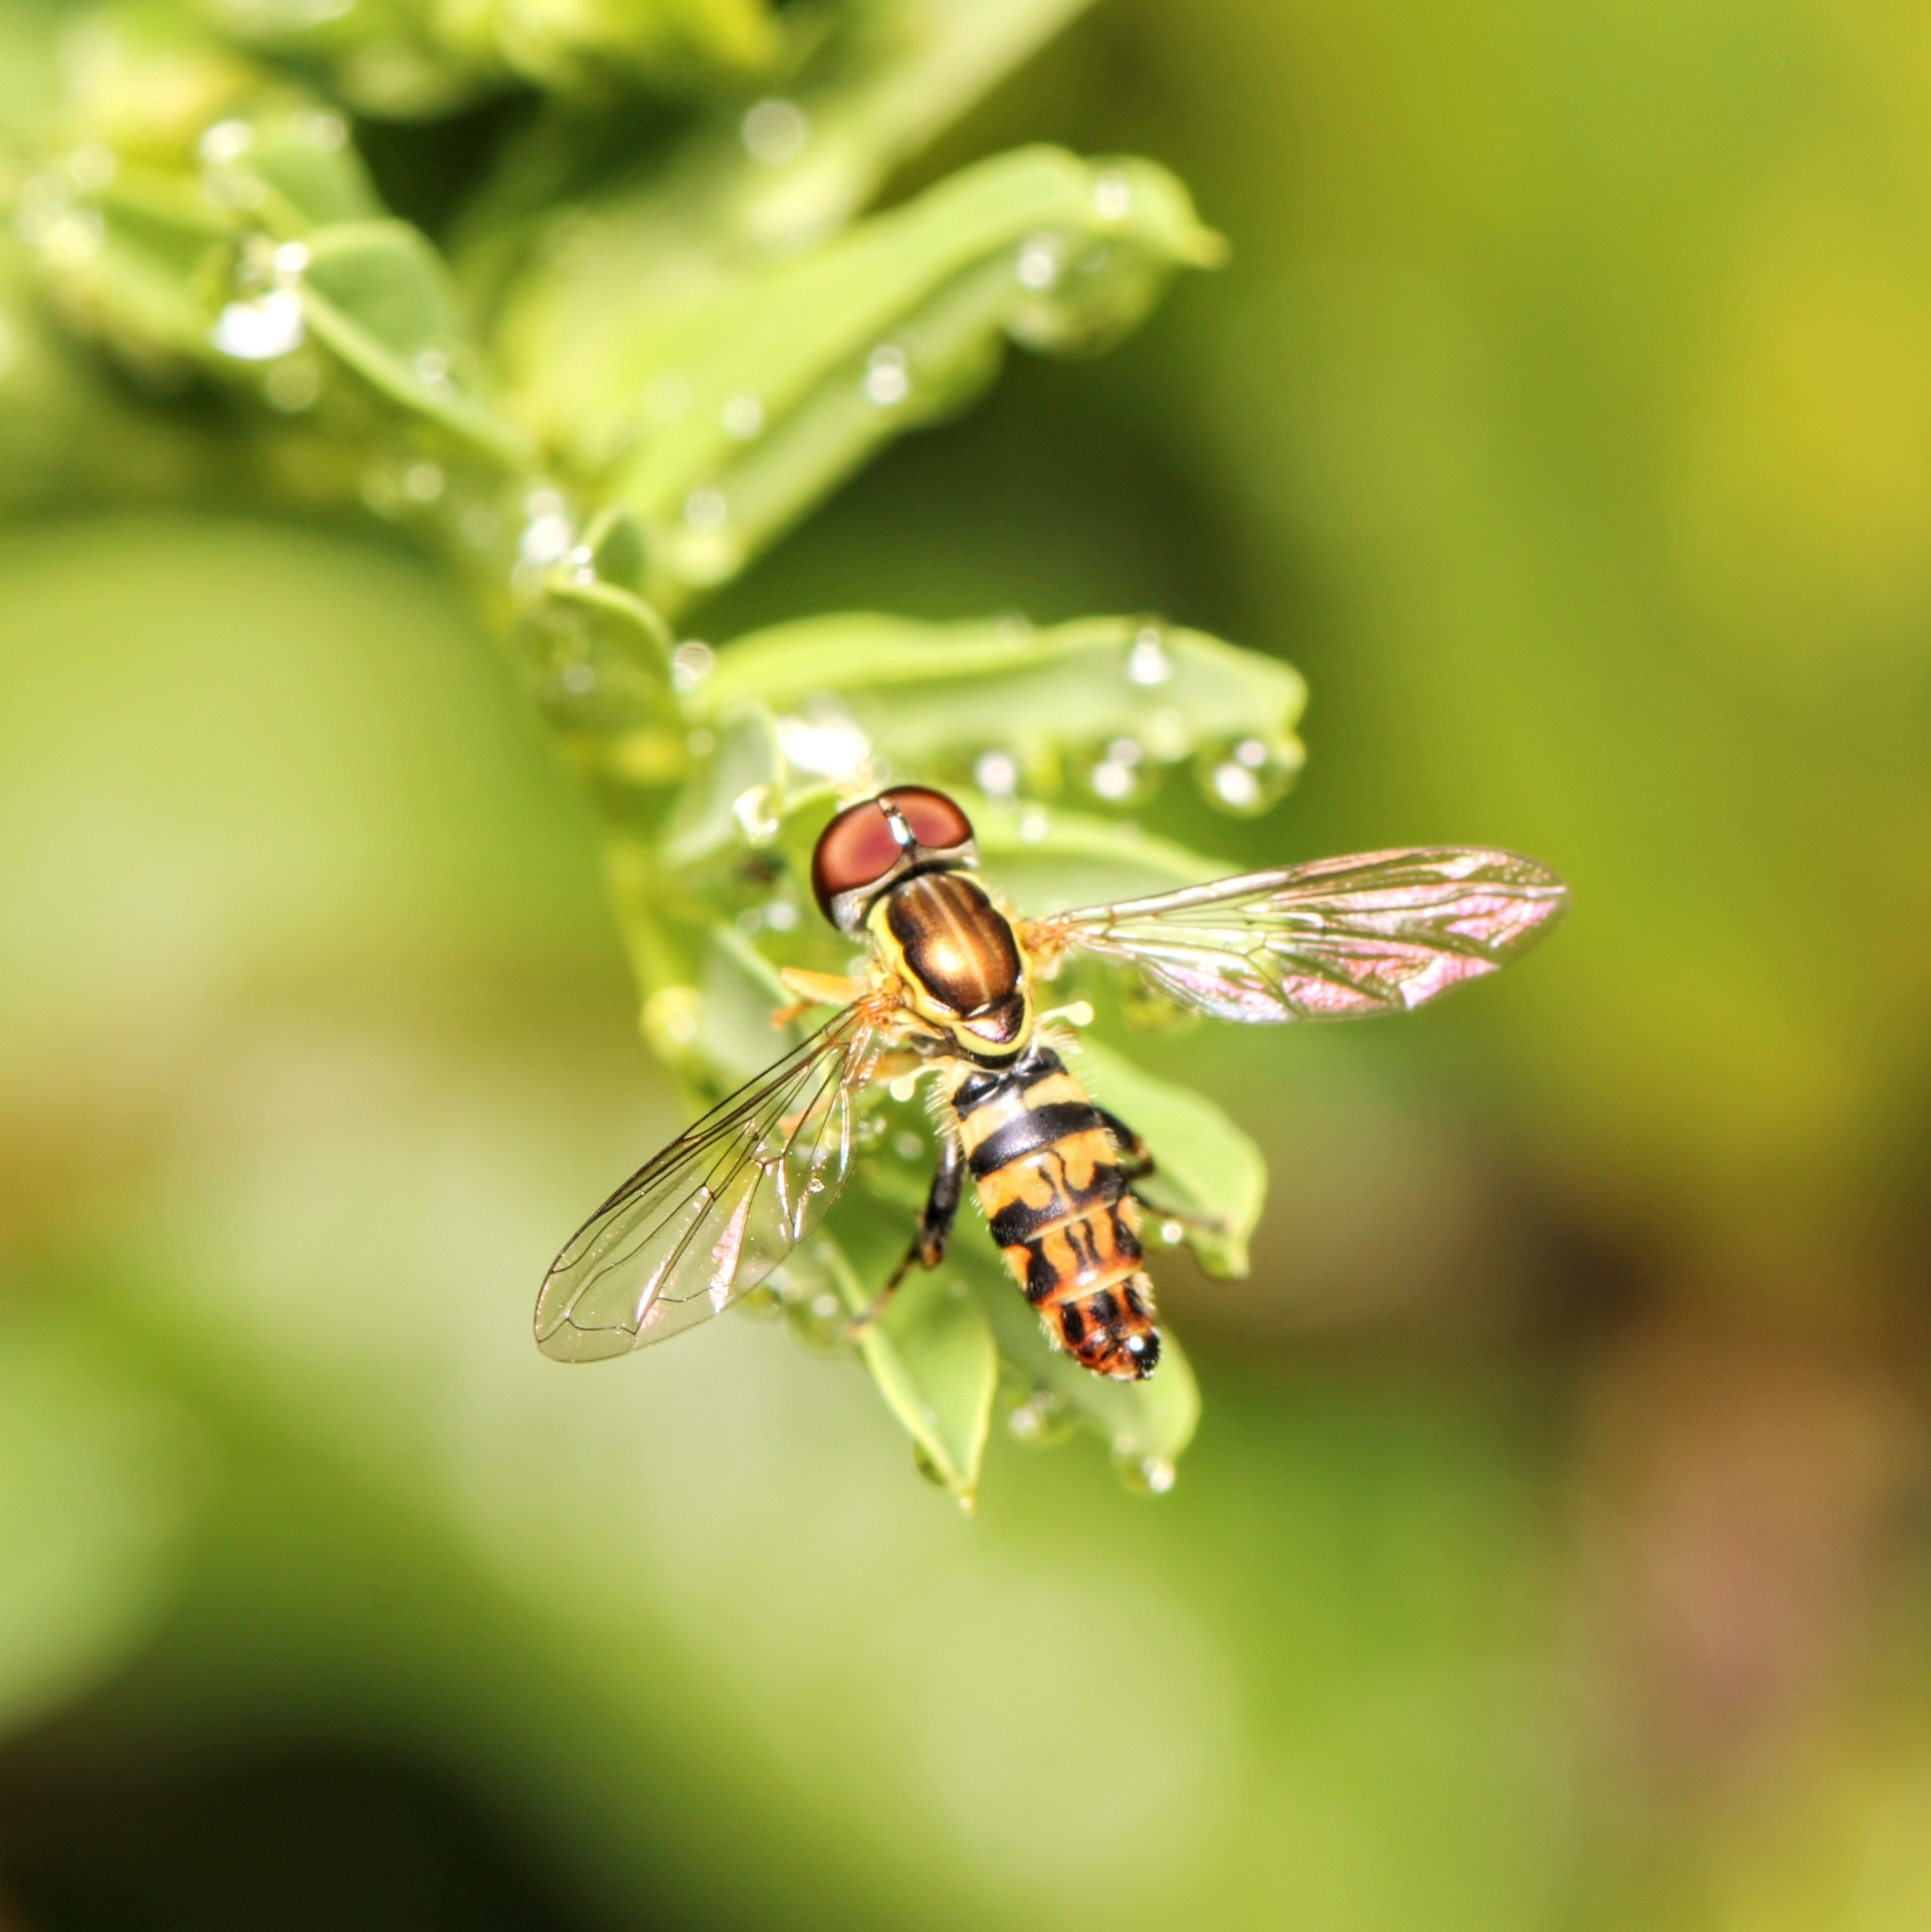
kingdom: Animalia
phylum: Arthropoda
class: Insecta
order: Diptera
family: Syrphidae
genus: Toxomerus
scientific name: Toxomerus geminatus
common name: Eastern calligrapher
